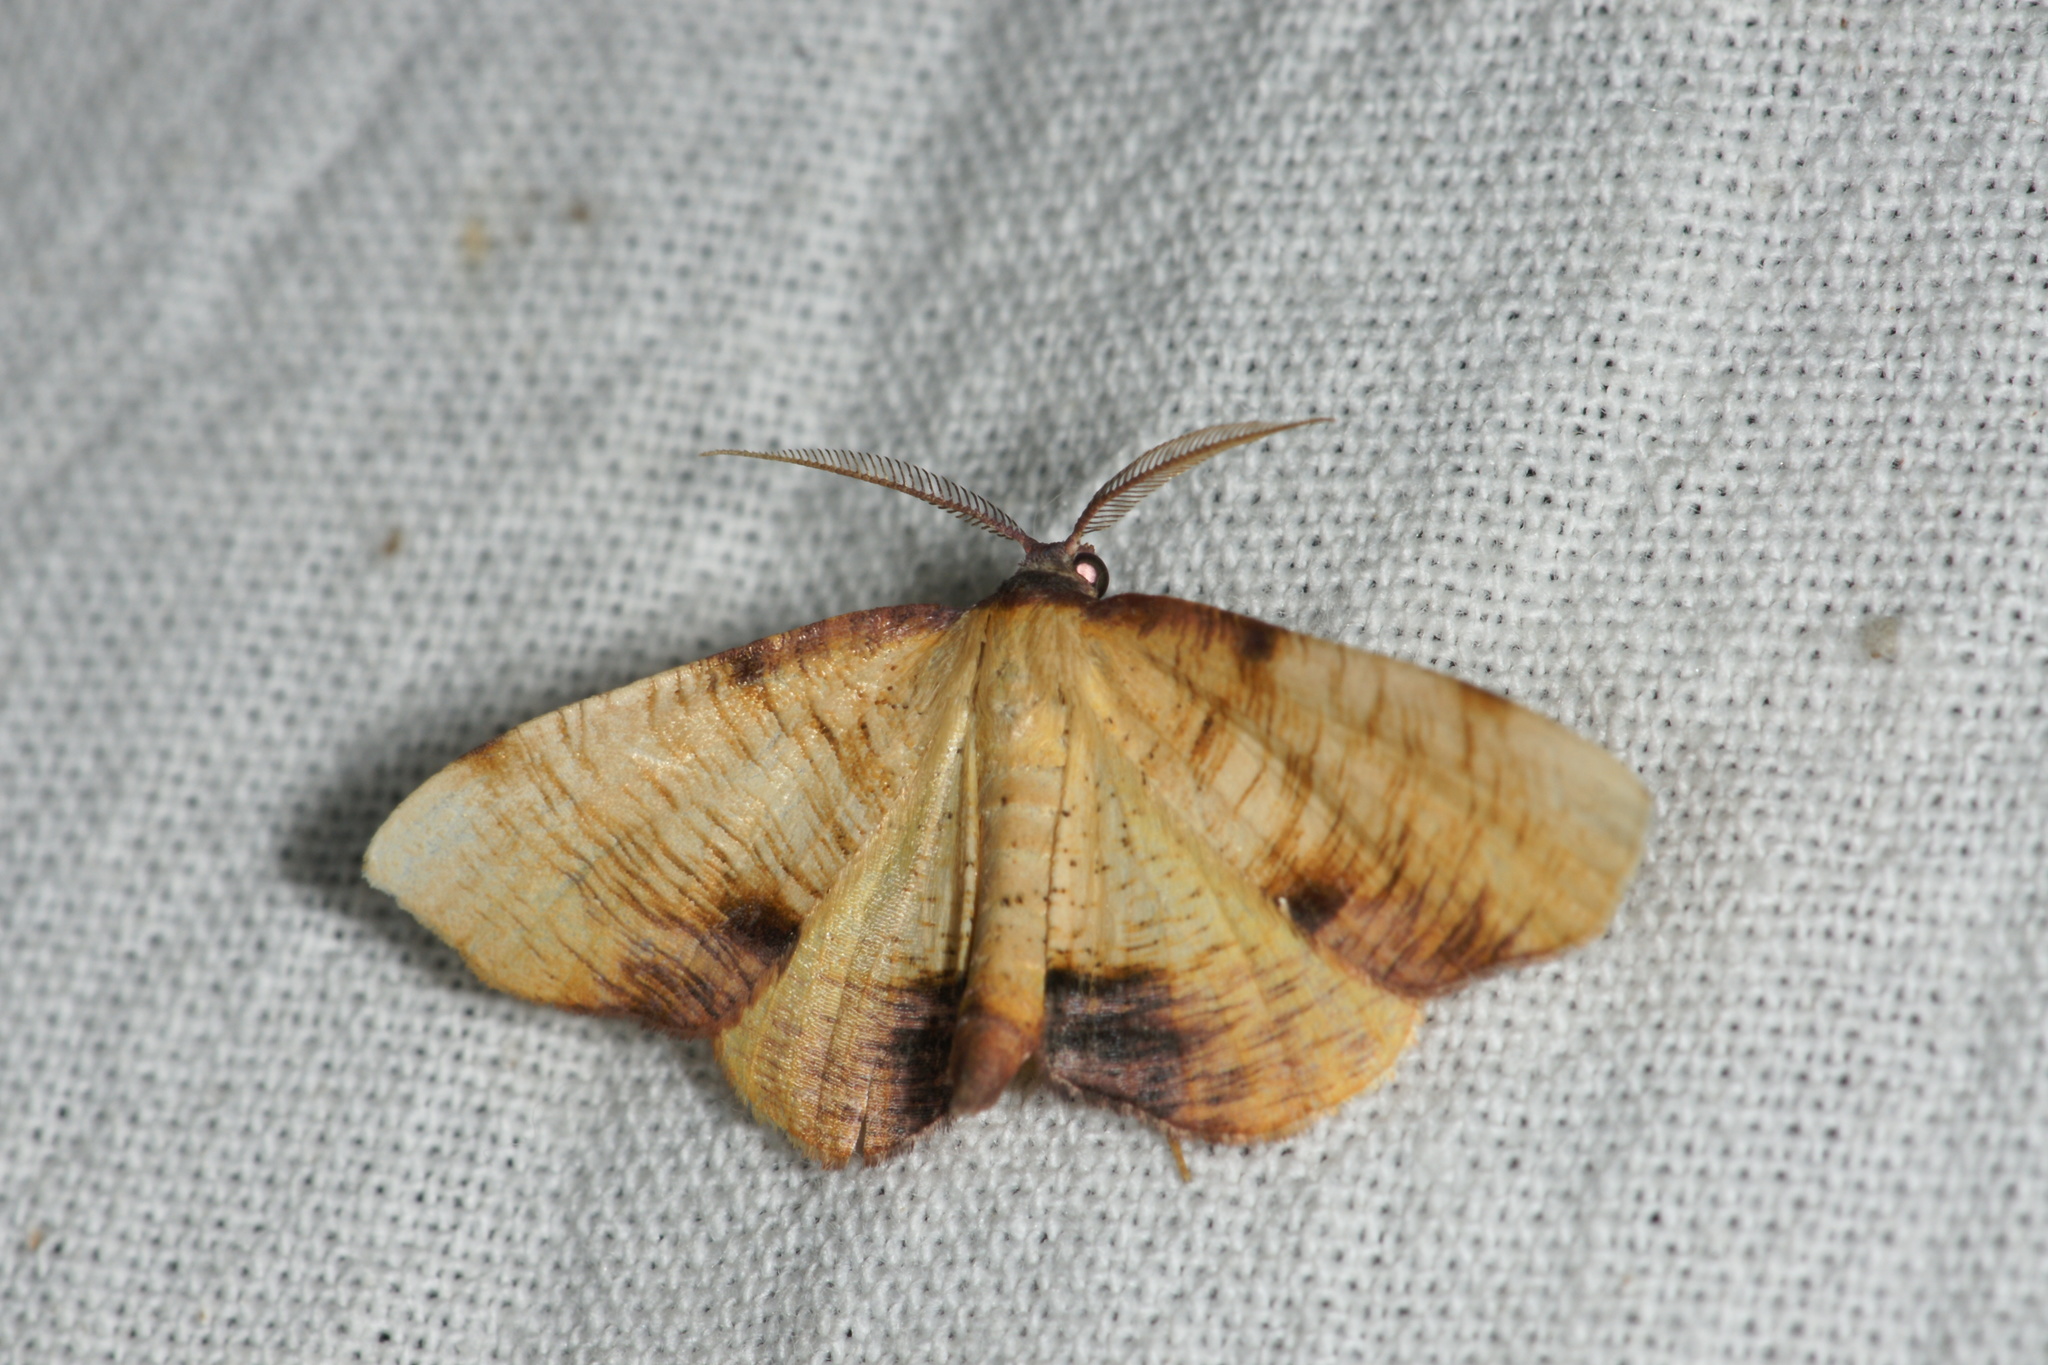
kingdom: Animalia
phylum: Arthropoda
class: Insecta
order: Lepidoptera
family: Geometridae
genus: Plagodis
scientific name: Plagodis dolabraria
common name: Scorched wing
